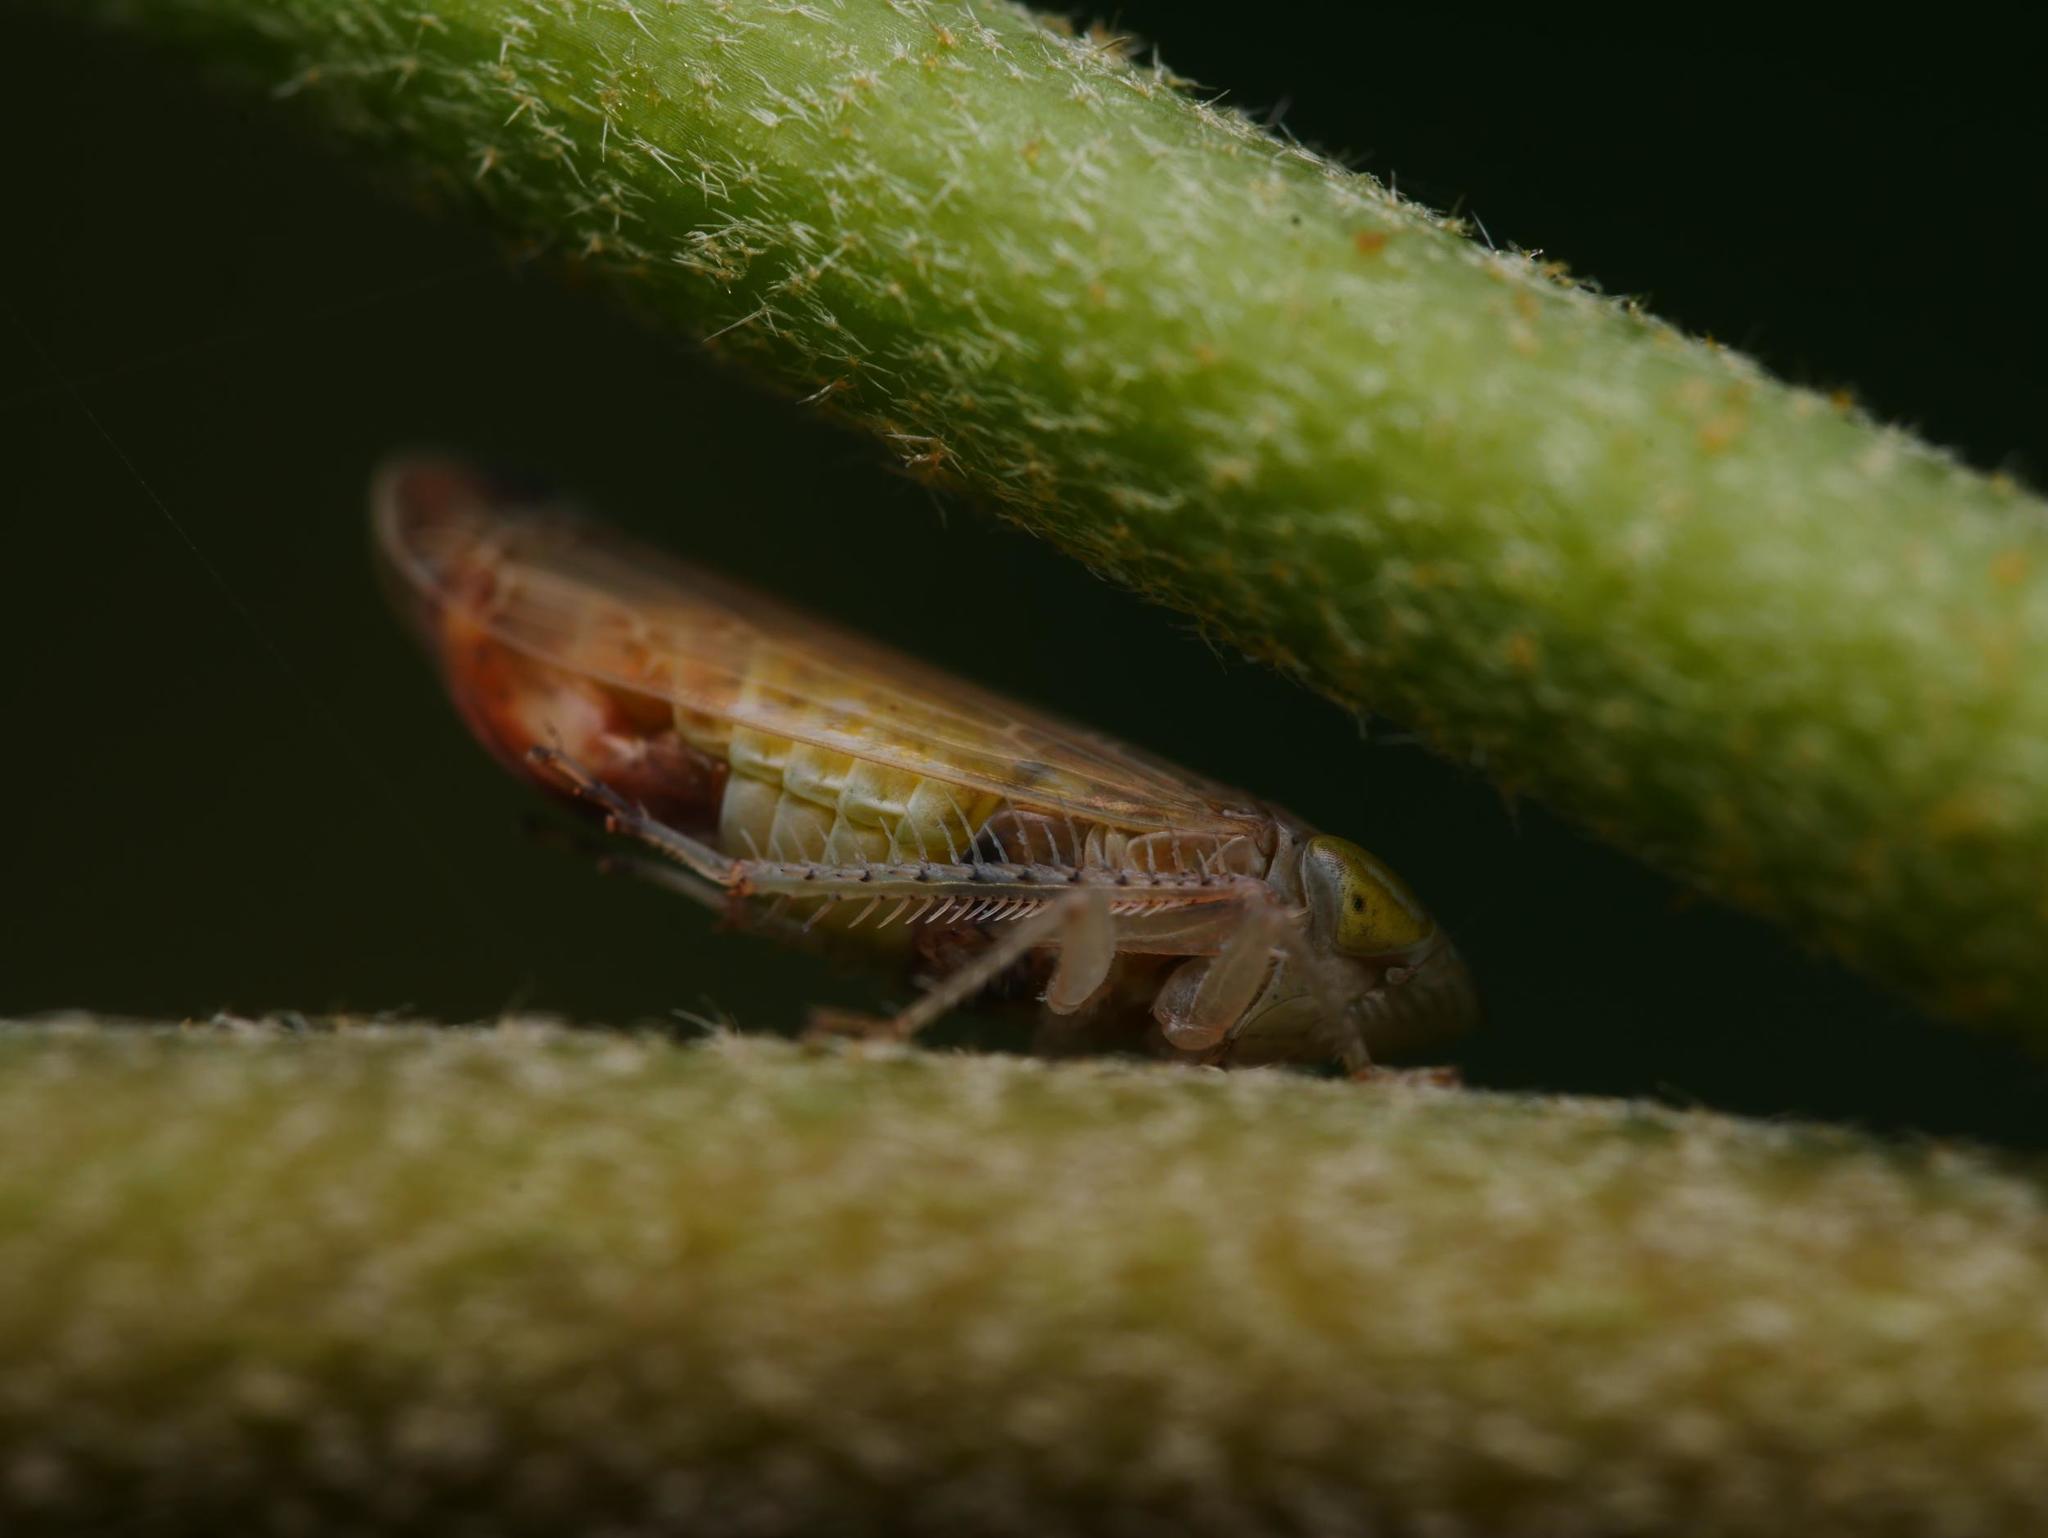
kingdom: Animalia
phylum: Arthropoda
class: Insecta
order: Hemiptera
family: Cicadellidae
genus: Synophropsis
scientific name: Synophropsis lauri
